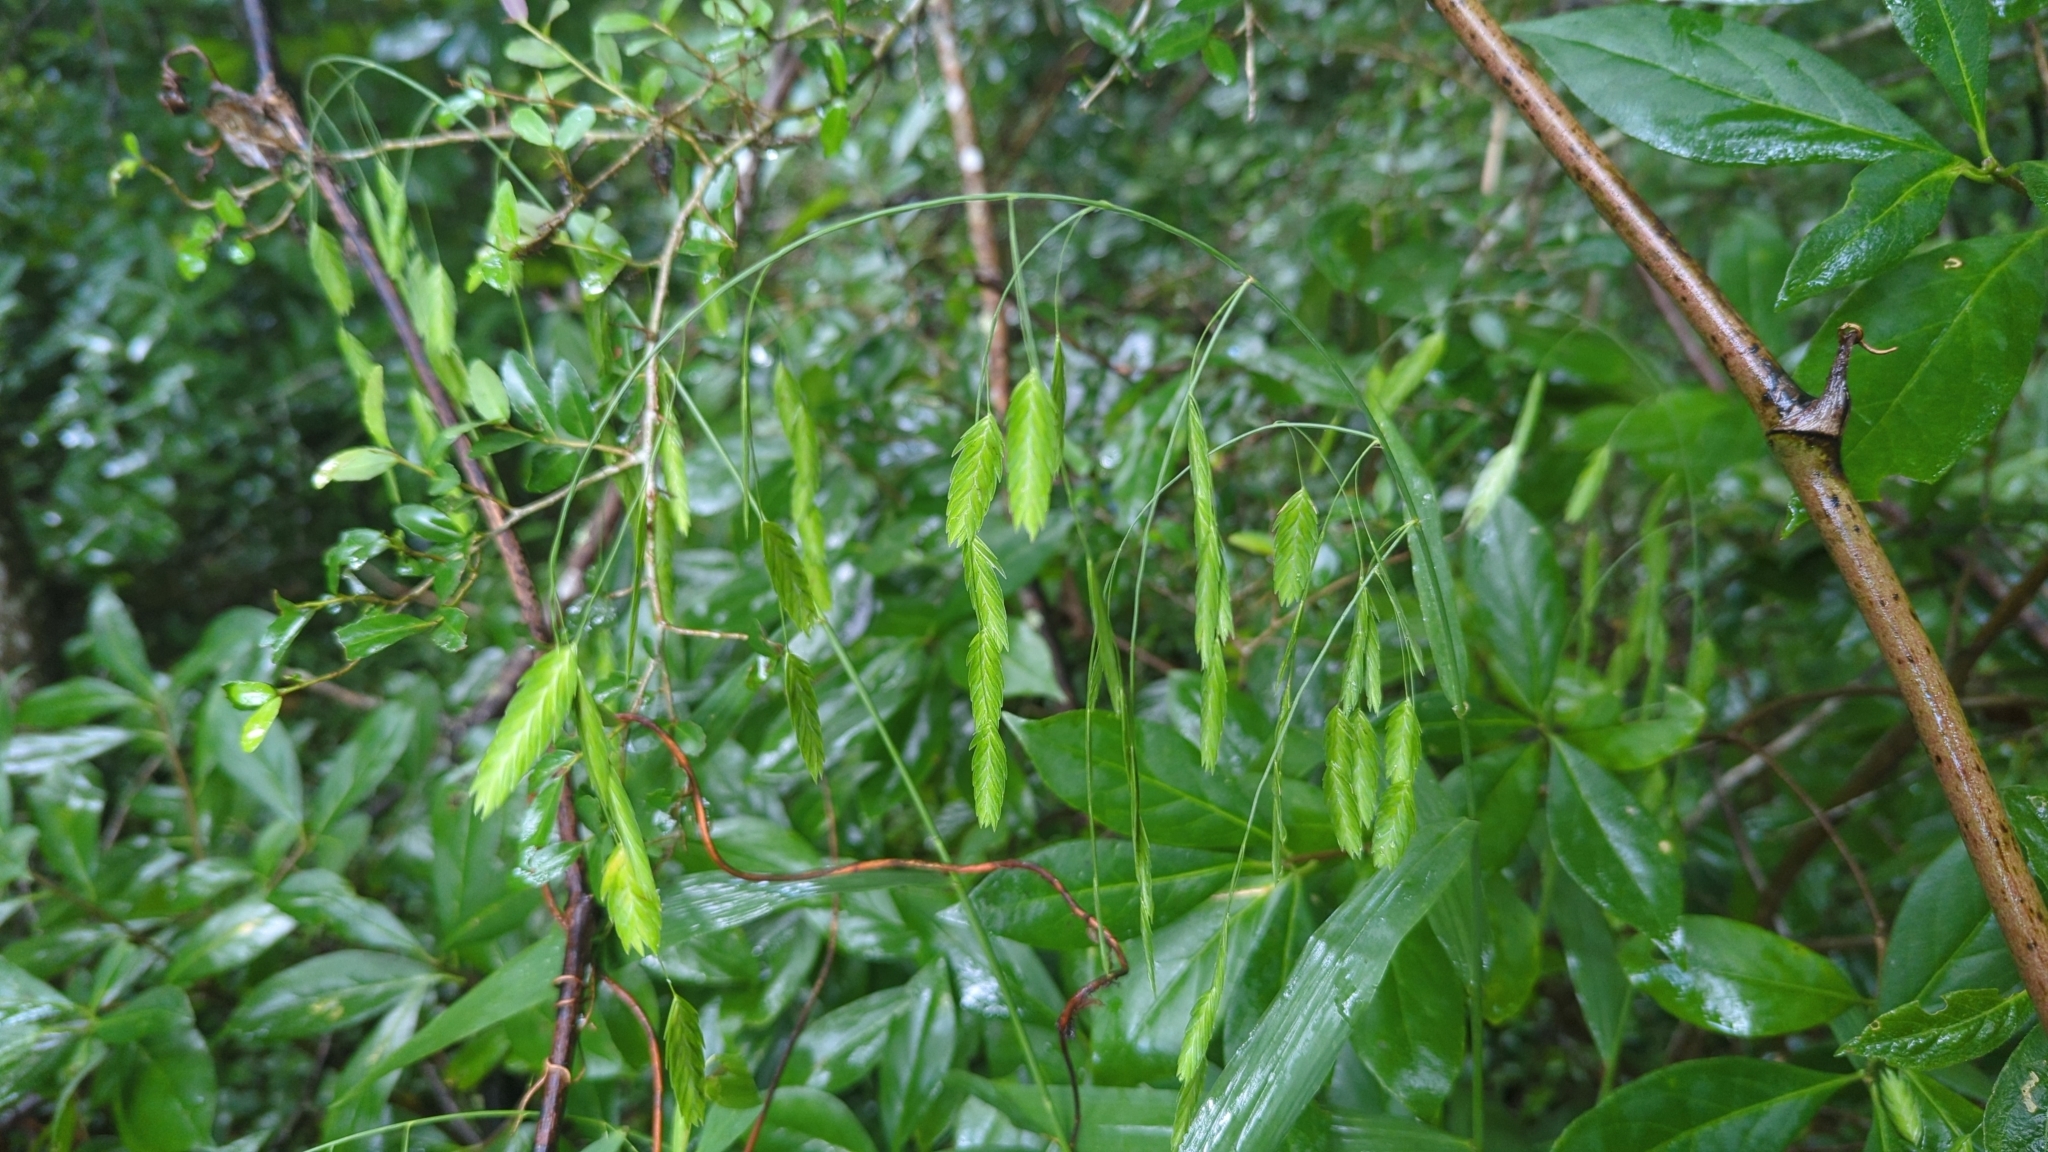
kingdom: Plantae
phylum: Tracheophyta
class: Liliopsida
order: Poales
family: Poaceae
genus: Chasmanthium
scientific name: Chasmanthium latifolium
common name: Broad-leaved chasmanthium
